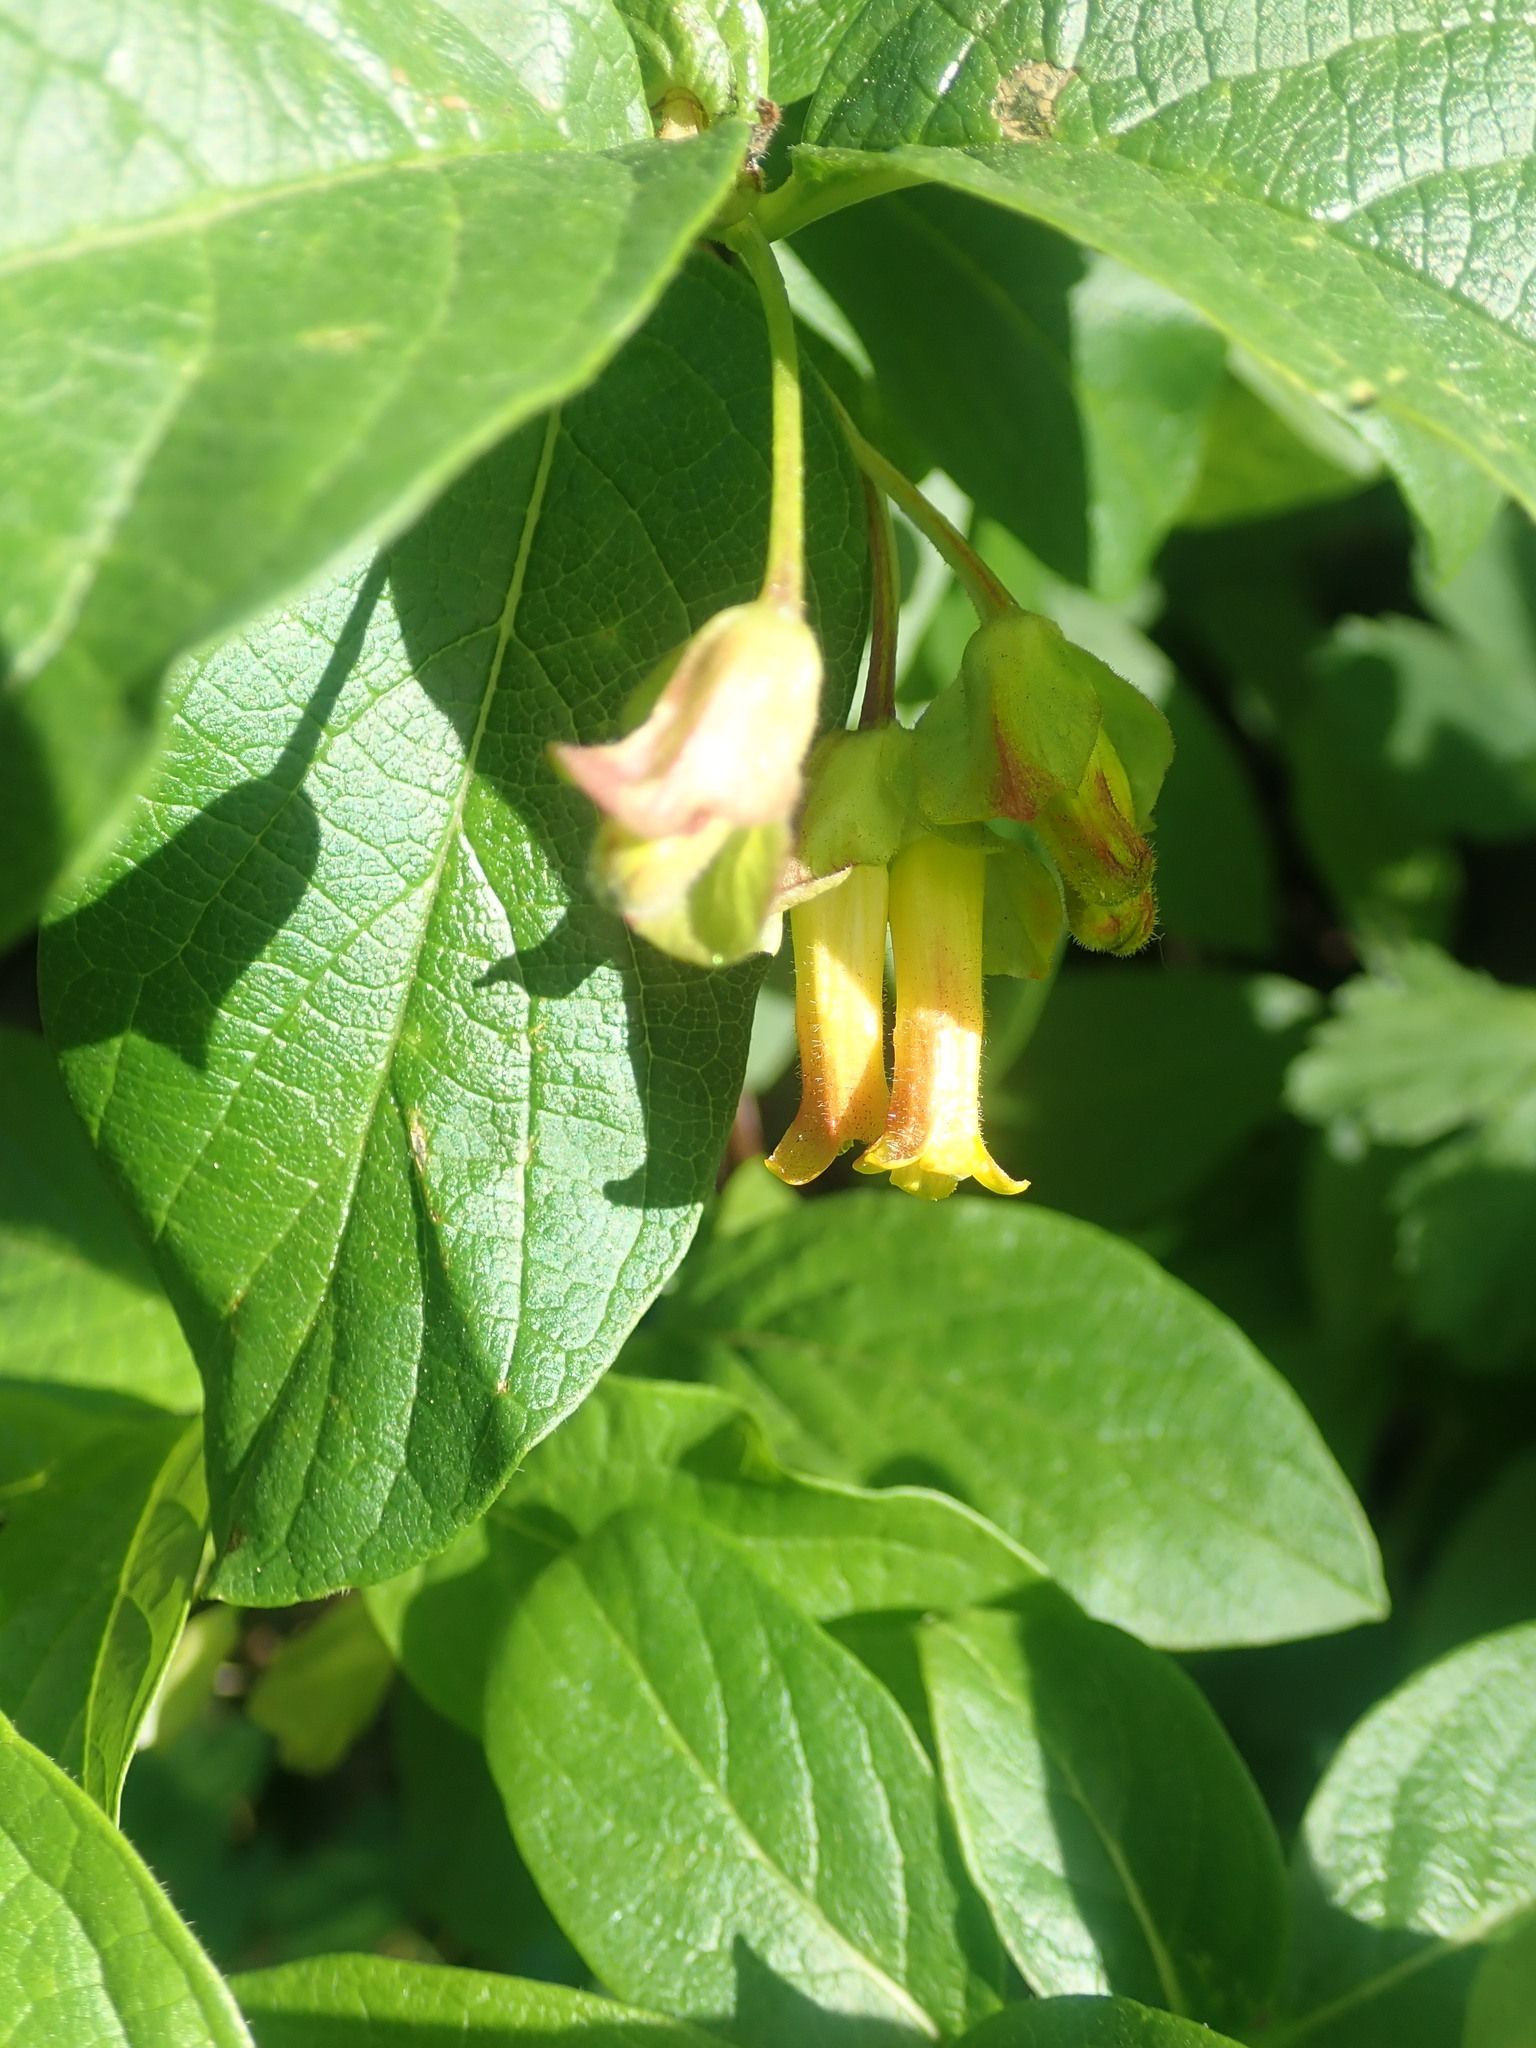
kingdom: Plantae
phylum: Tracheophyta
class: Magnoliopsida
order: Dipsacales
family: Caprifoliaceae
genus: Lonicera
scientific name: Lonicera involucrata
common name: Californian honeysuckle
